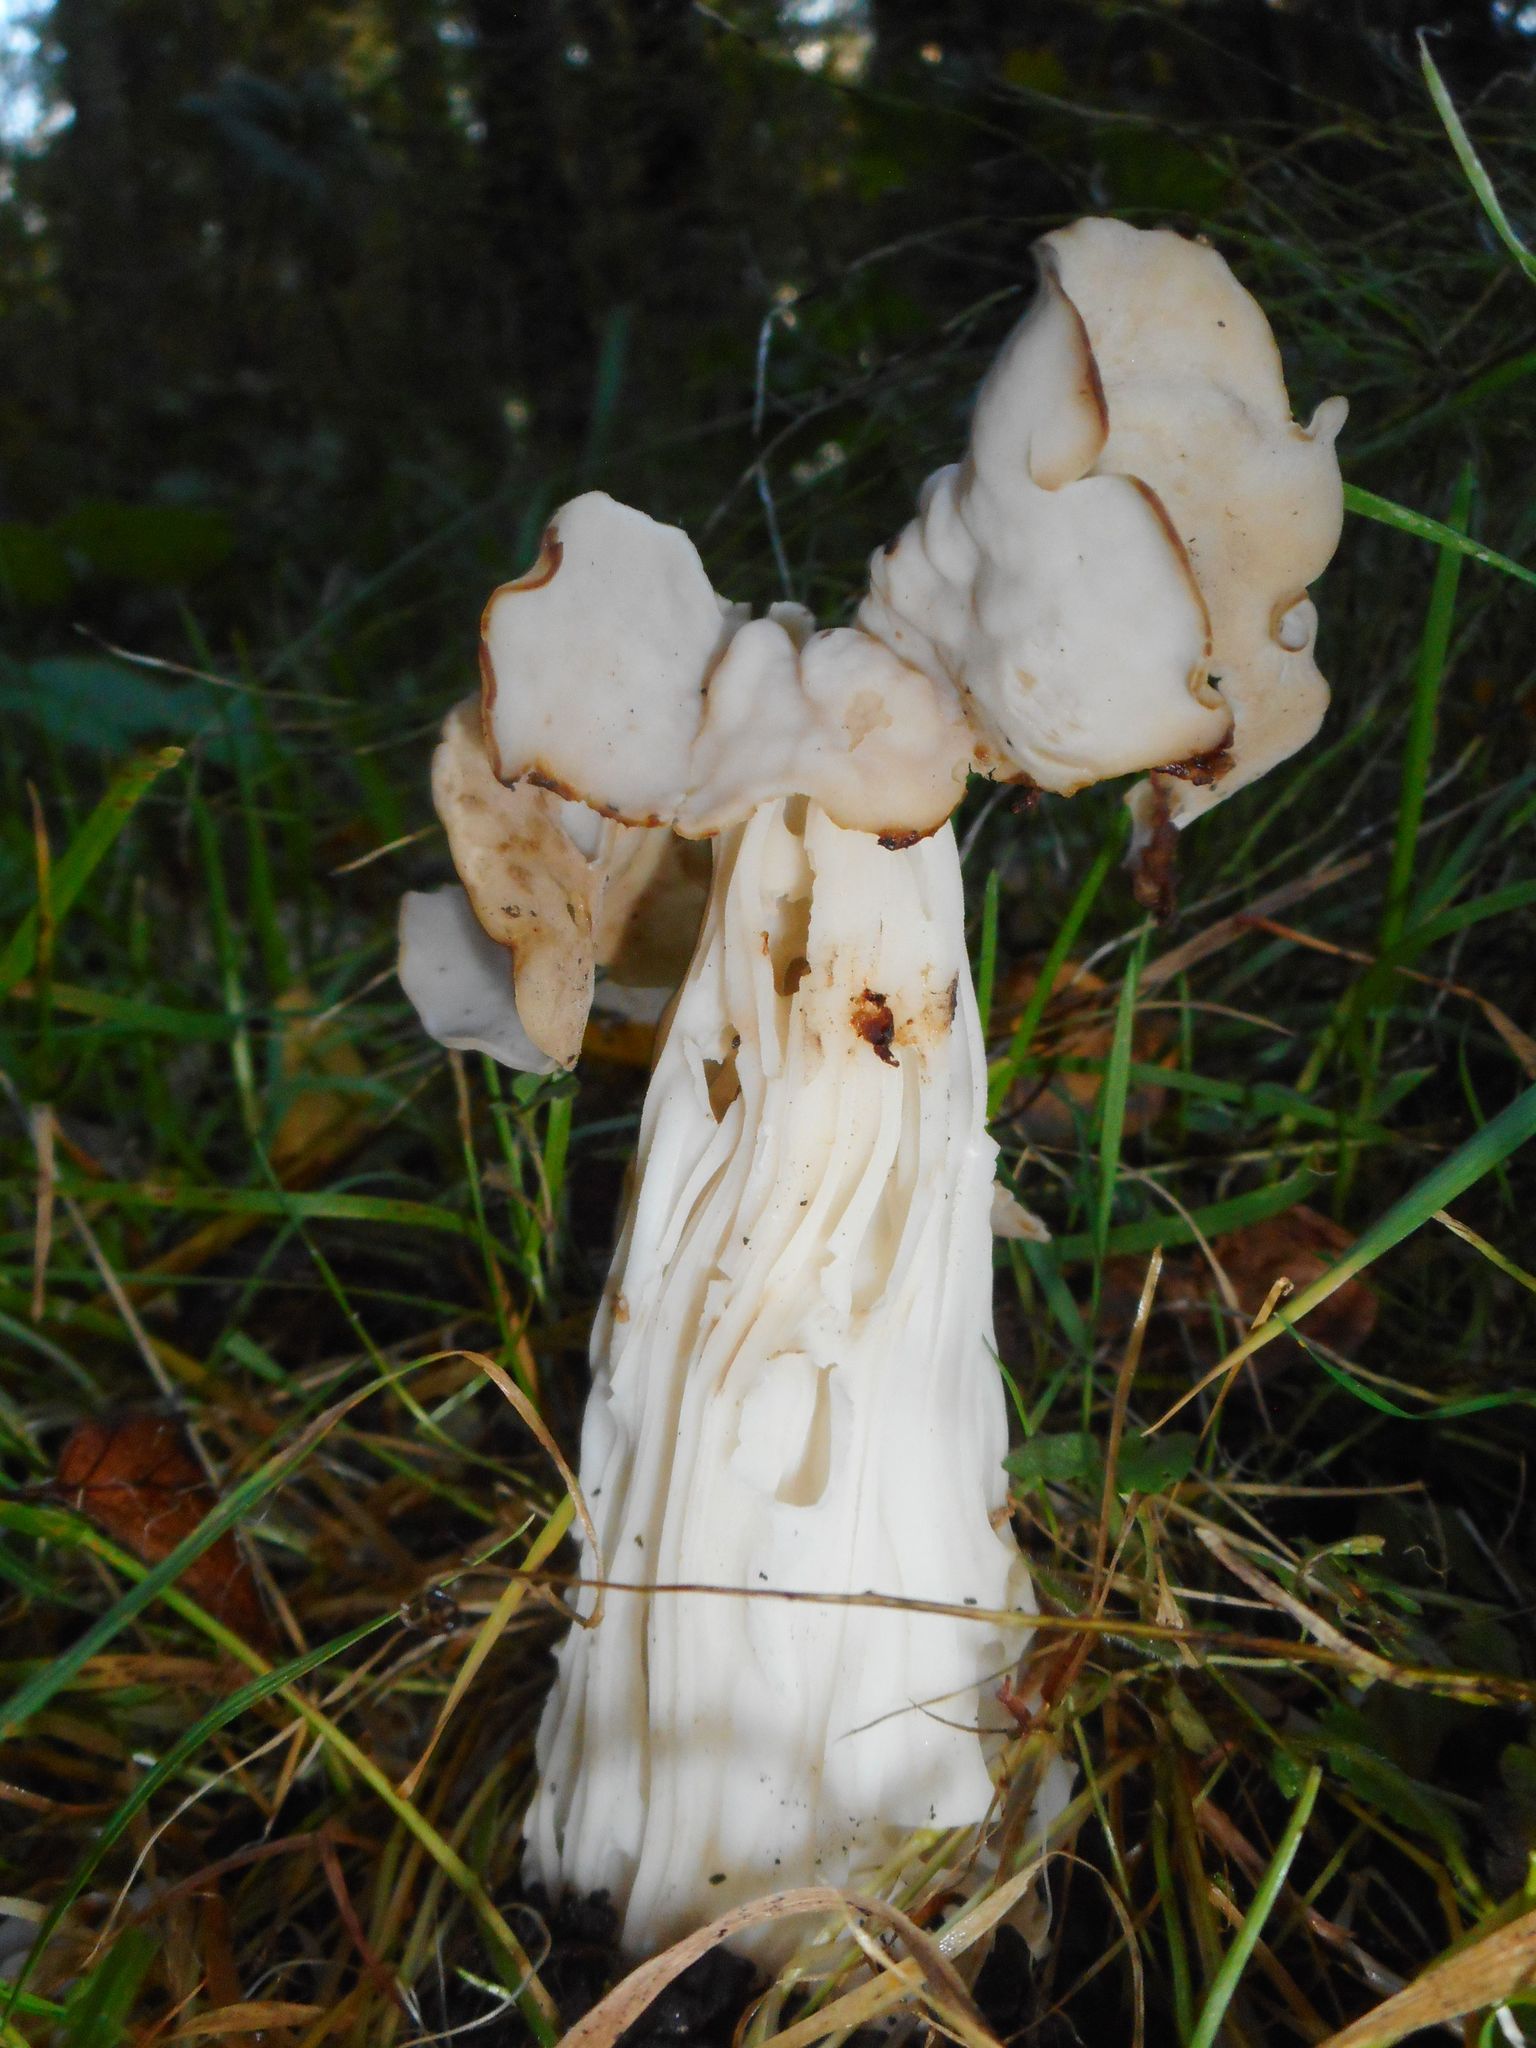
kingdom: Fungi
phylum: Ascomycota
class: Pezizomycetes
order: Pezizales
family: Helvellaceae
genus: Helvella
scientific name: Helvella crispa
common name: White saddle
